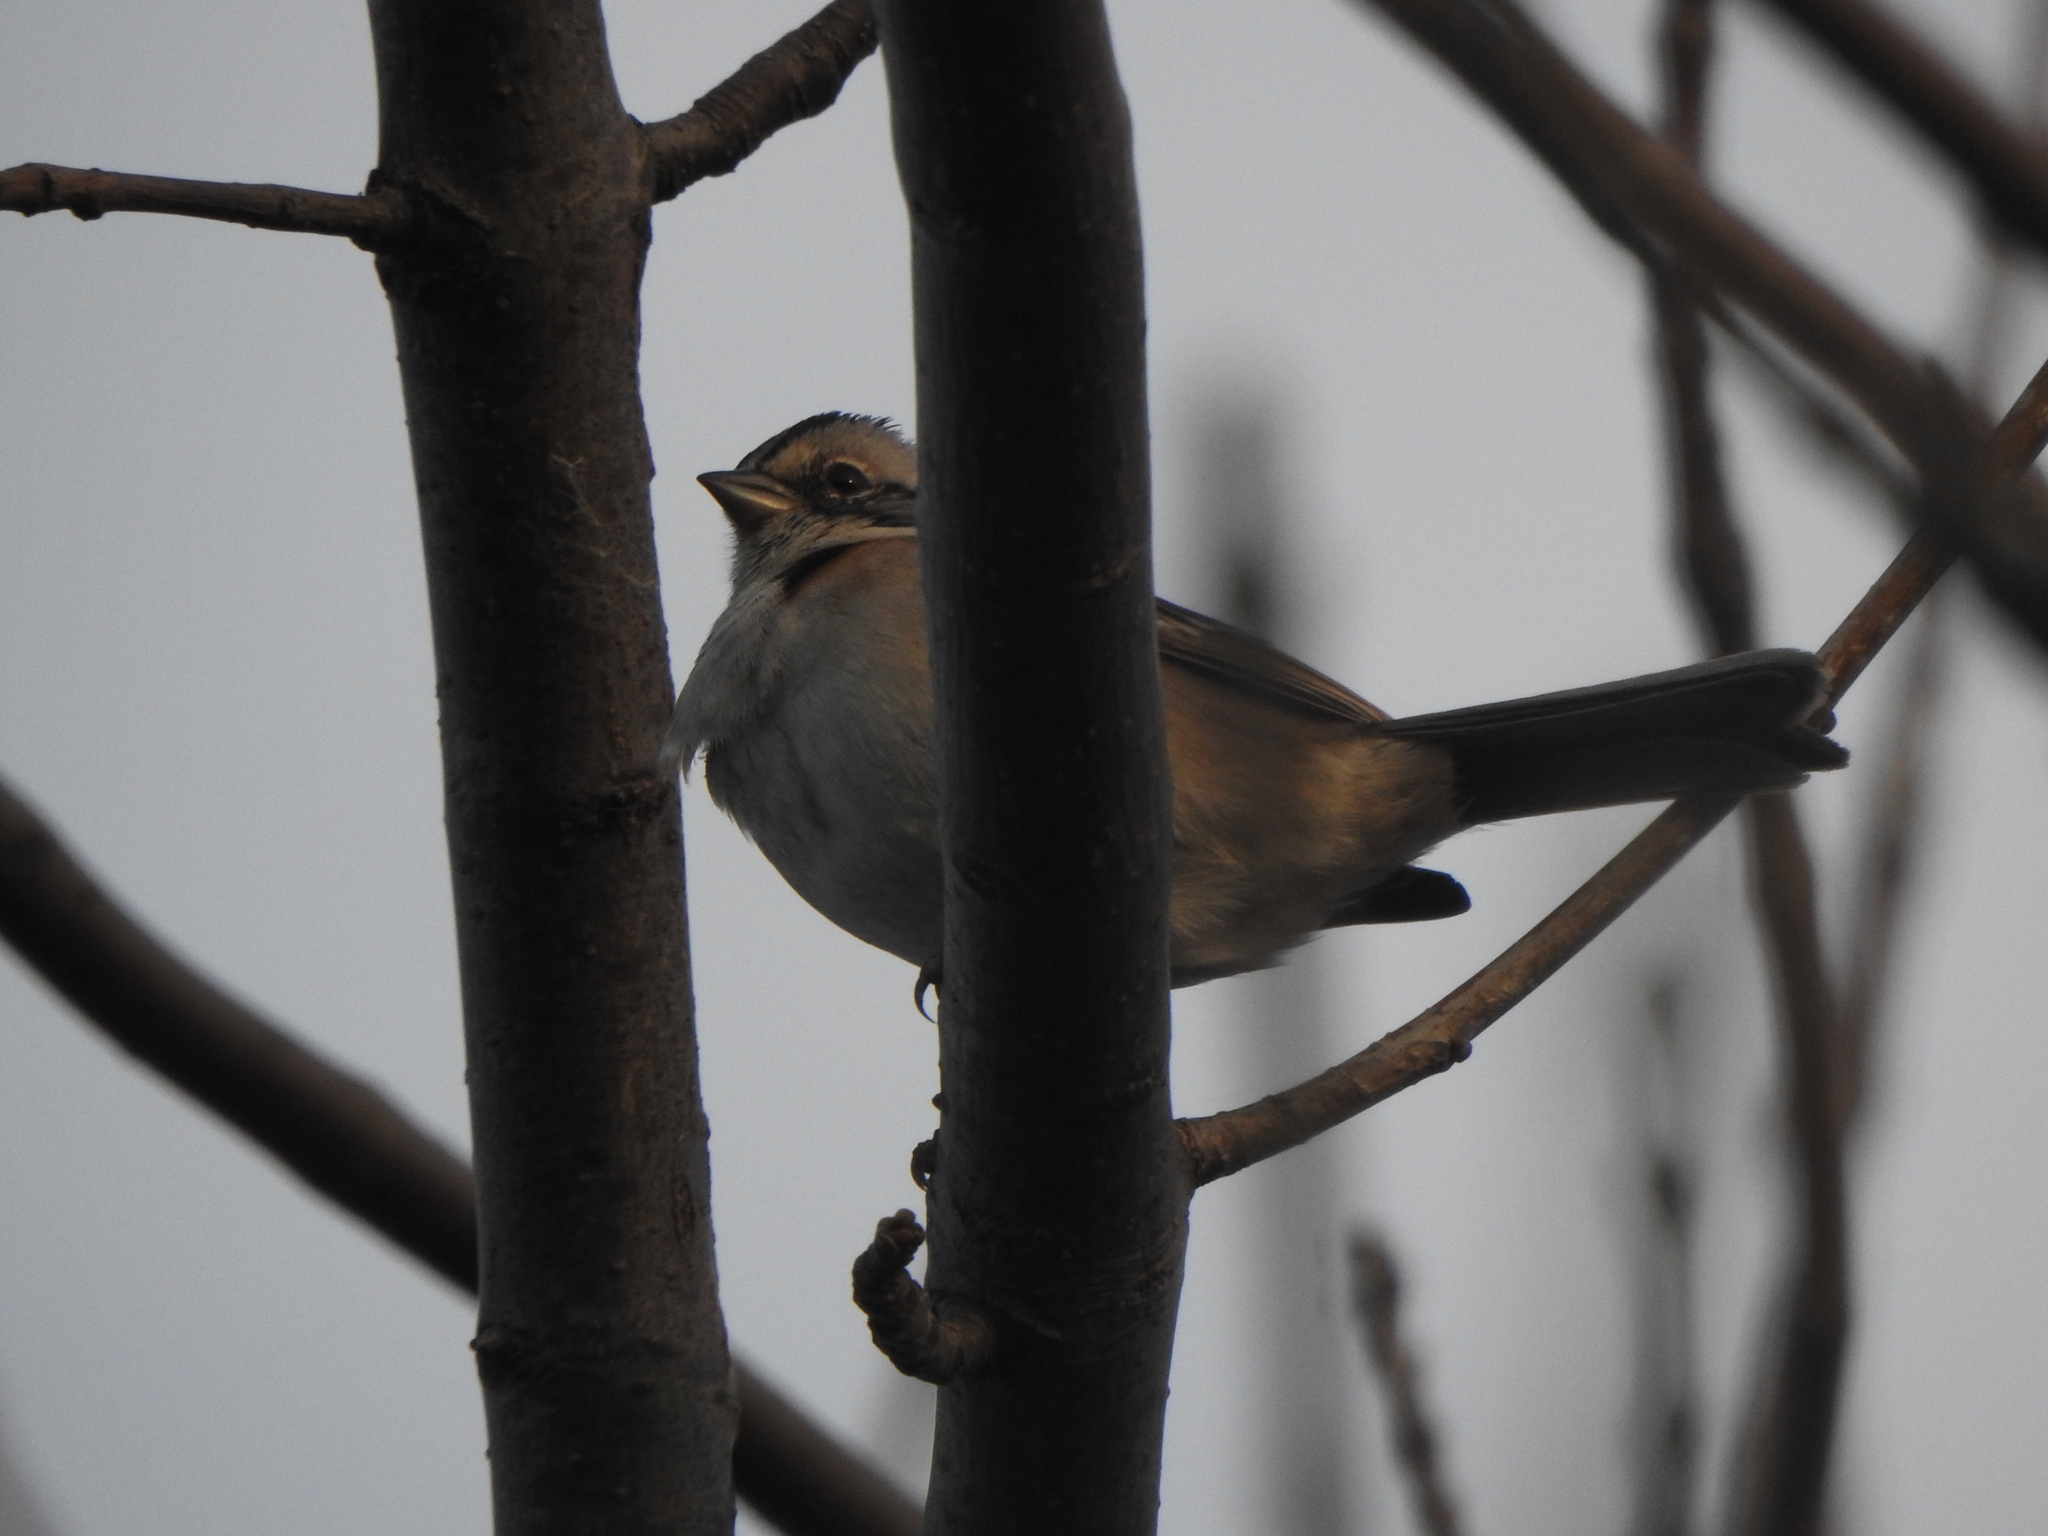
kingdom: Animalia
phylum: Chordata
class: Aves
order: Passeriformes
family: Passerellidae
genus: Zonotrichia
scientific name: Zonotrichia capensis
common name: Rufous-collared sparrow
